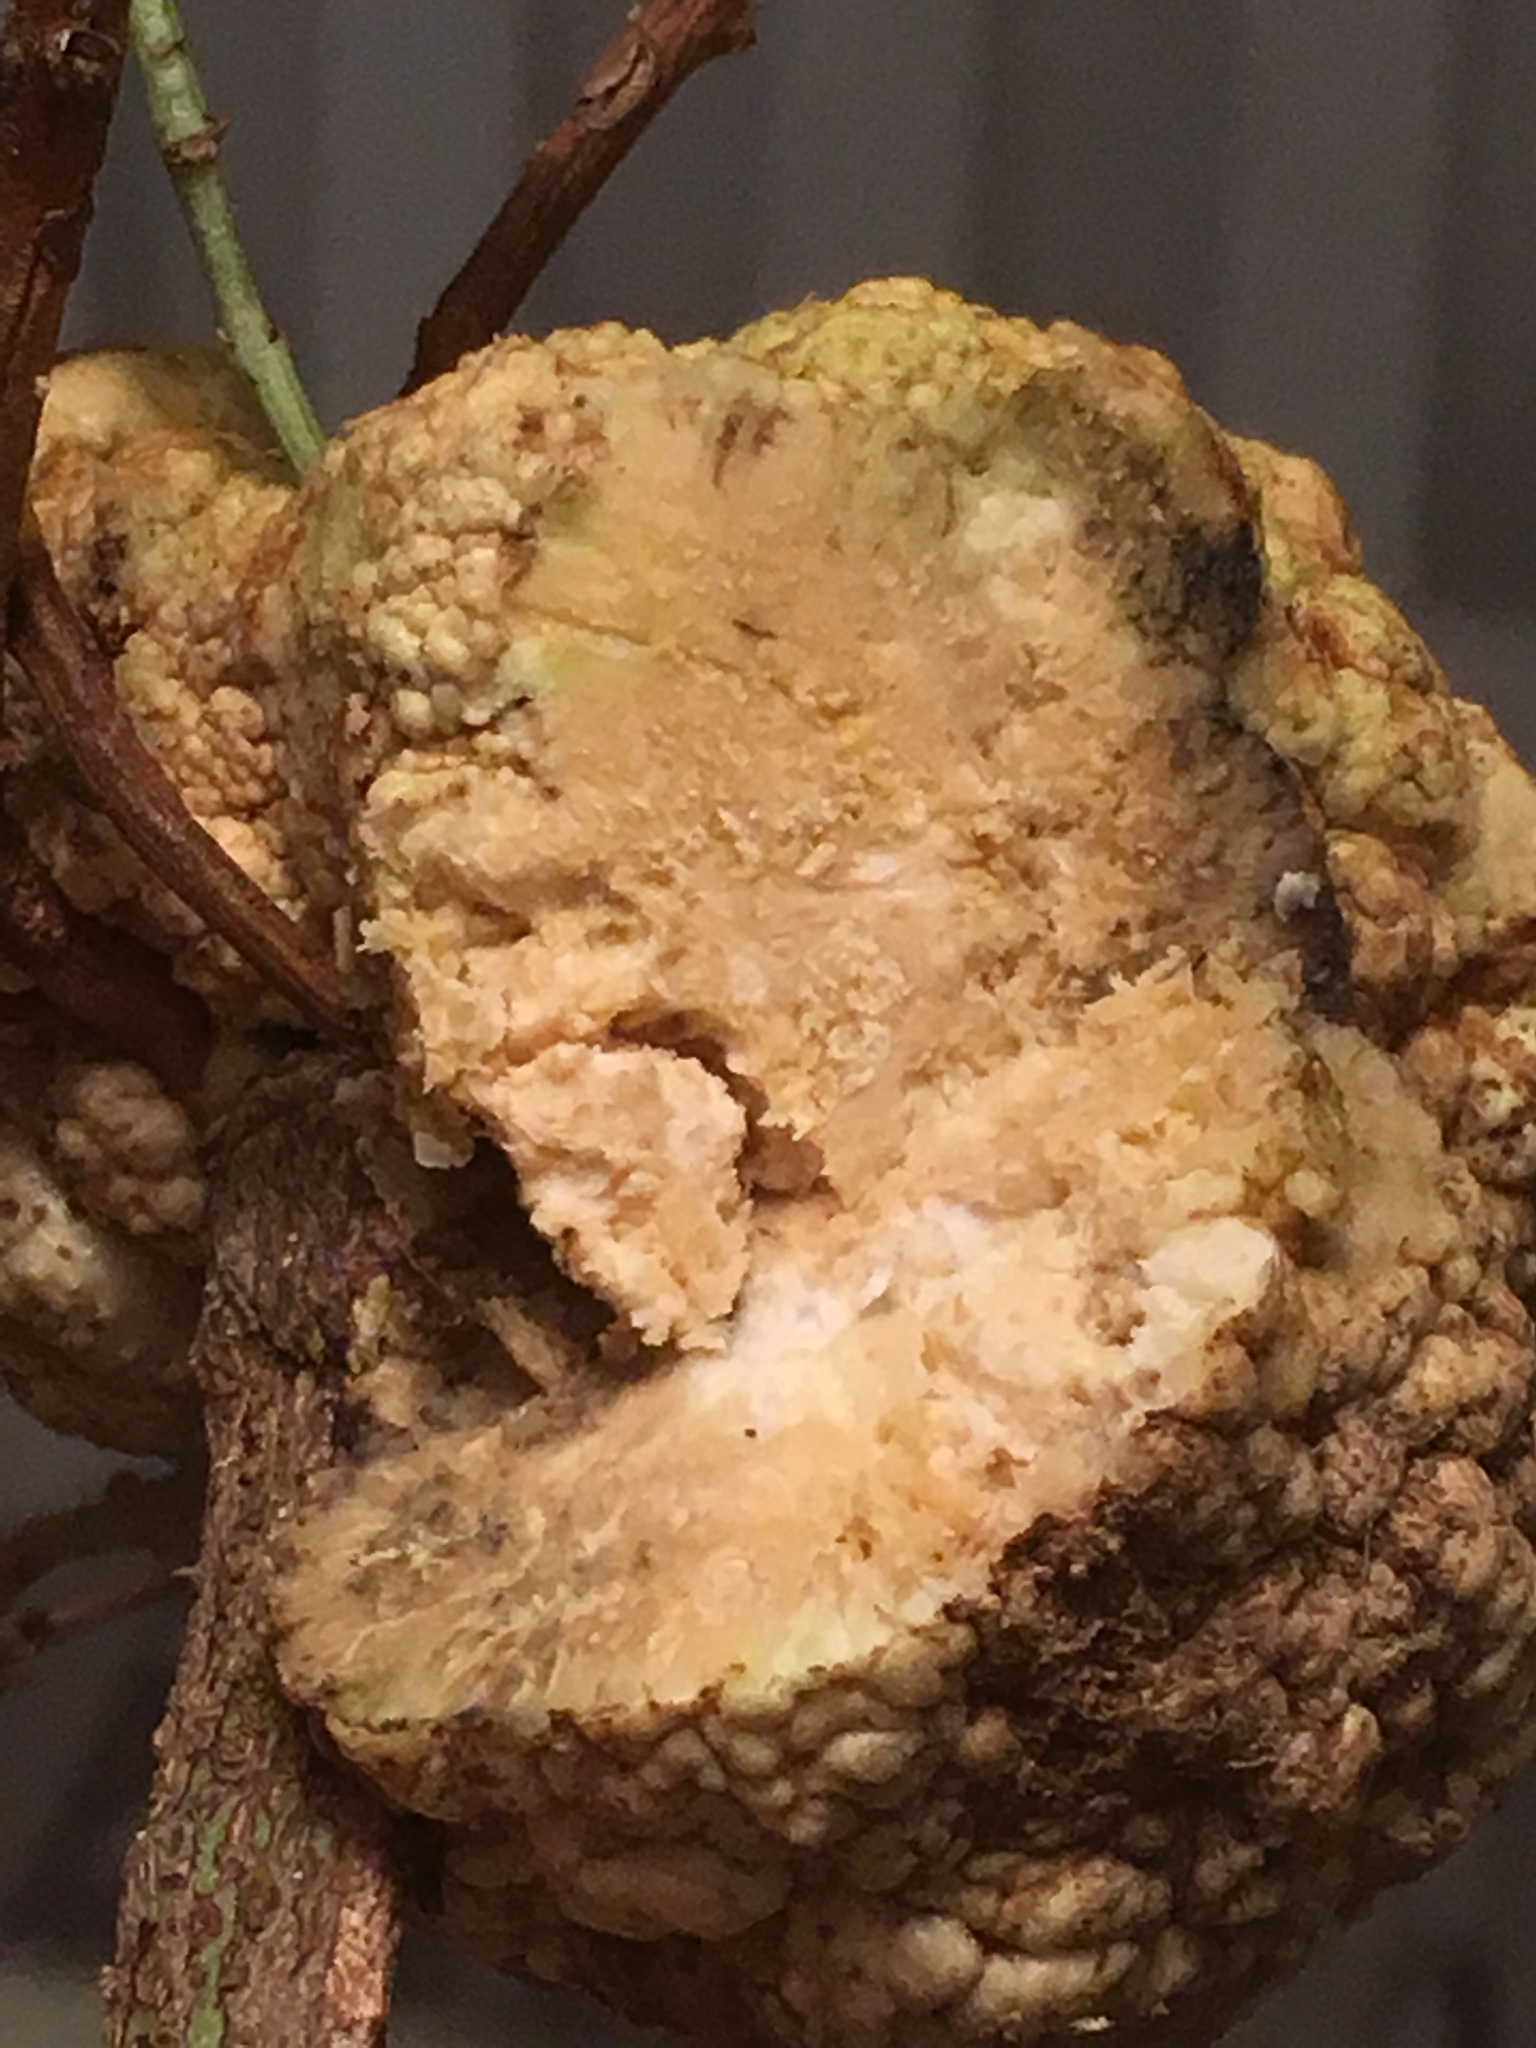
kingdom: Bacteria
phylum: Proteobacteria
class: Alphaproteobacteria
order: Rhizobiales
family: Rhizobiaceae
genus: Rhizobium
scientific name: Rhizobium Agrobacterium radiobacter
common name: Bacterial crown gall
